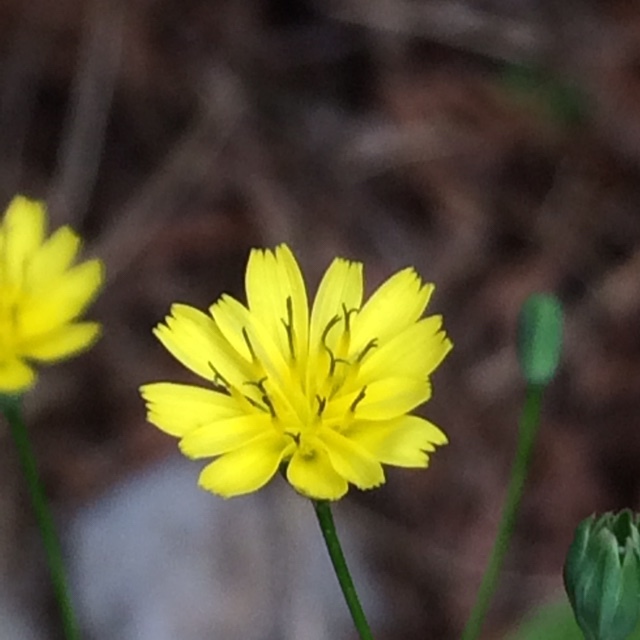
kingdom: Plantae
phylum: Tracheophyta
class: Magnoliopsida
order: Asterales
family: Asteraceae
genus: Lapsana
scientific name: Lapsana communis
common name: Nipplewort
